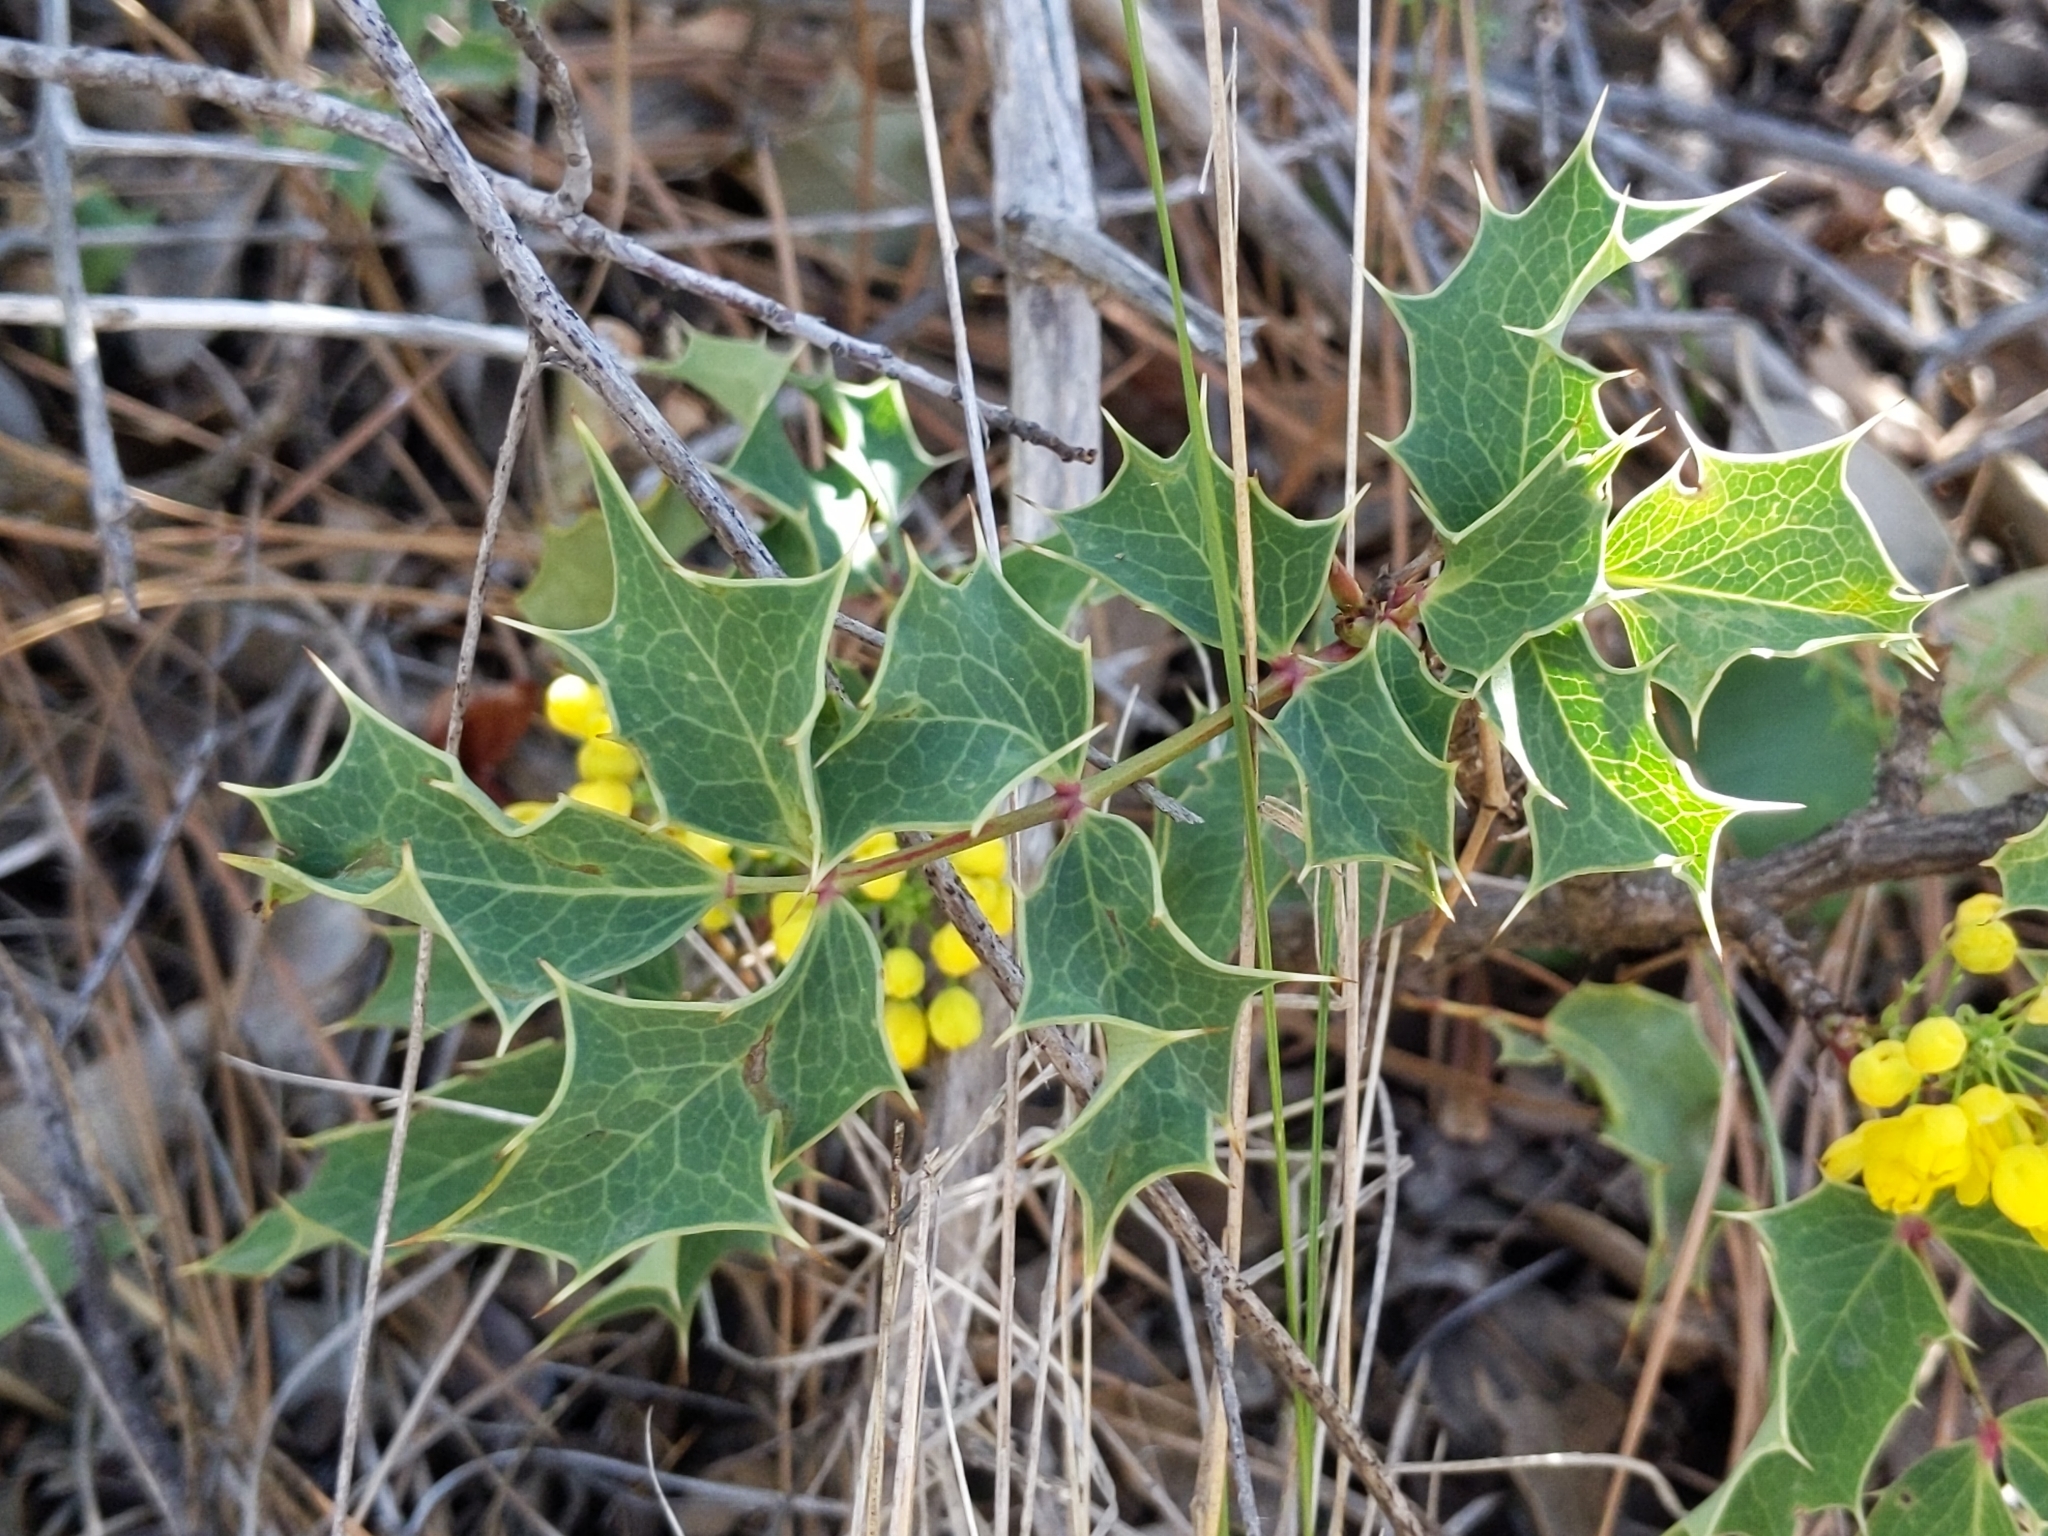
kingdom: Plantae
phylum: Tracheophyta
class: Magnoliopsida
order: Ranunculales
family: Berberidaceae
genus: Mahonia
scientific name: Mahonia dictyota
